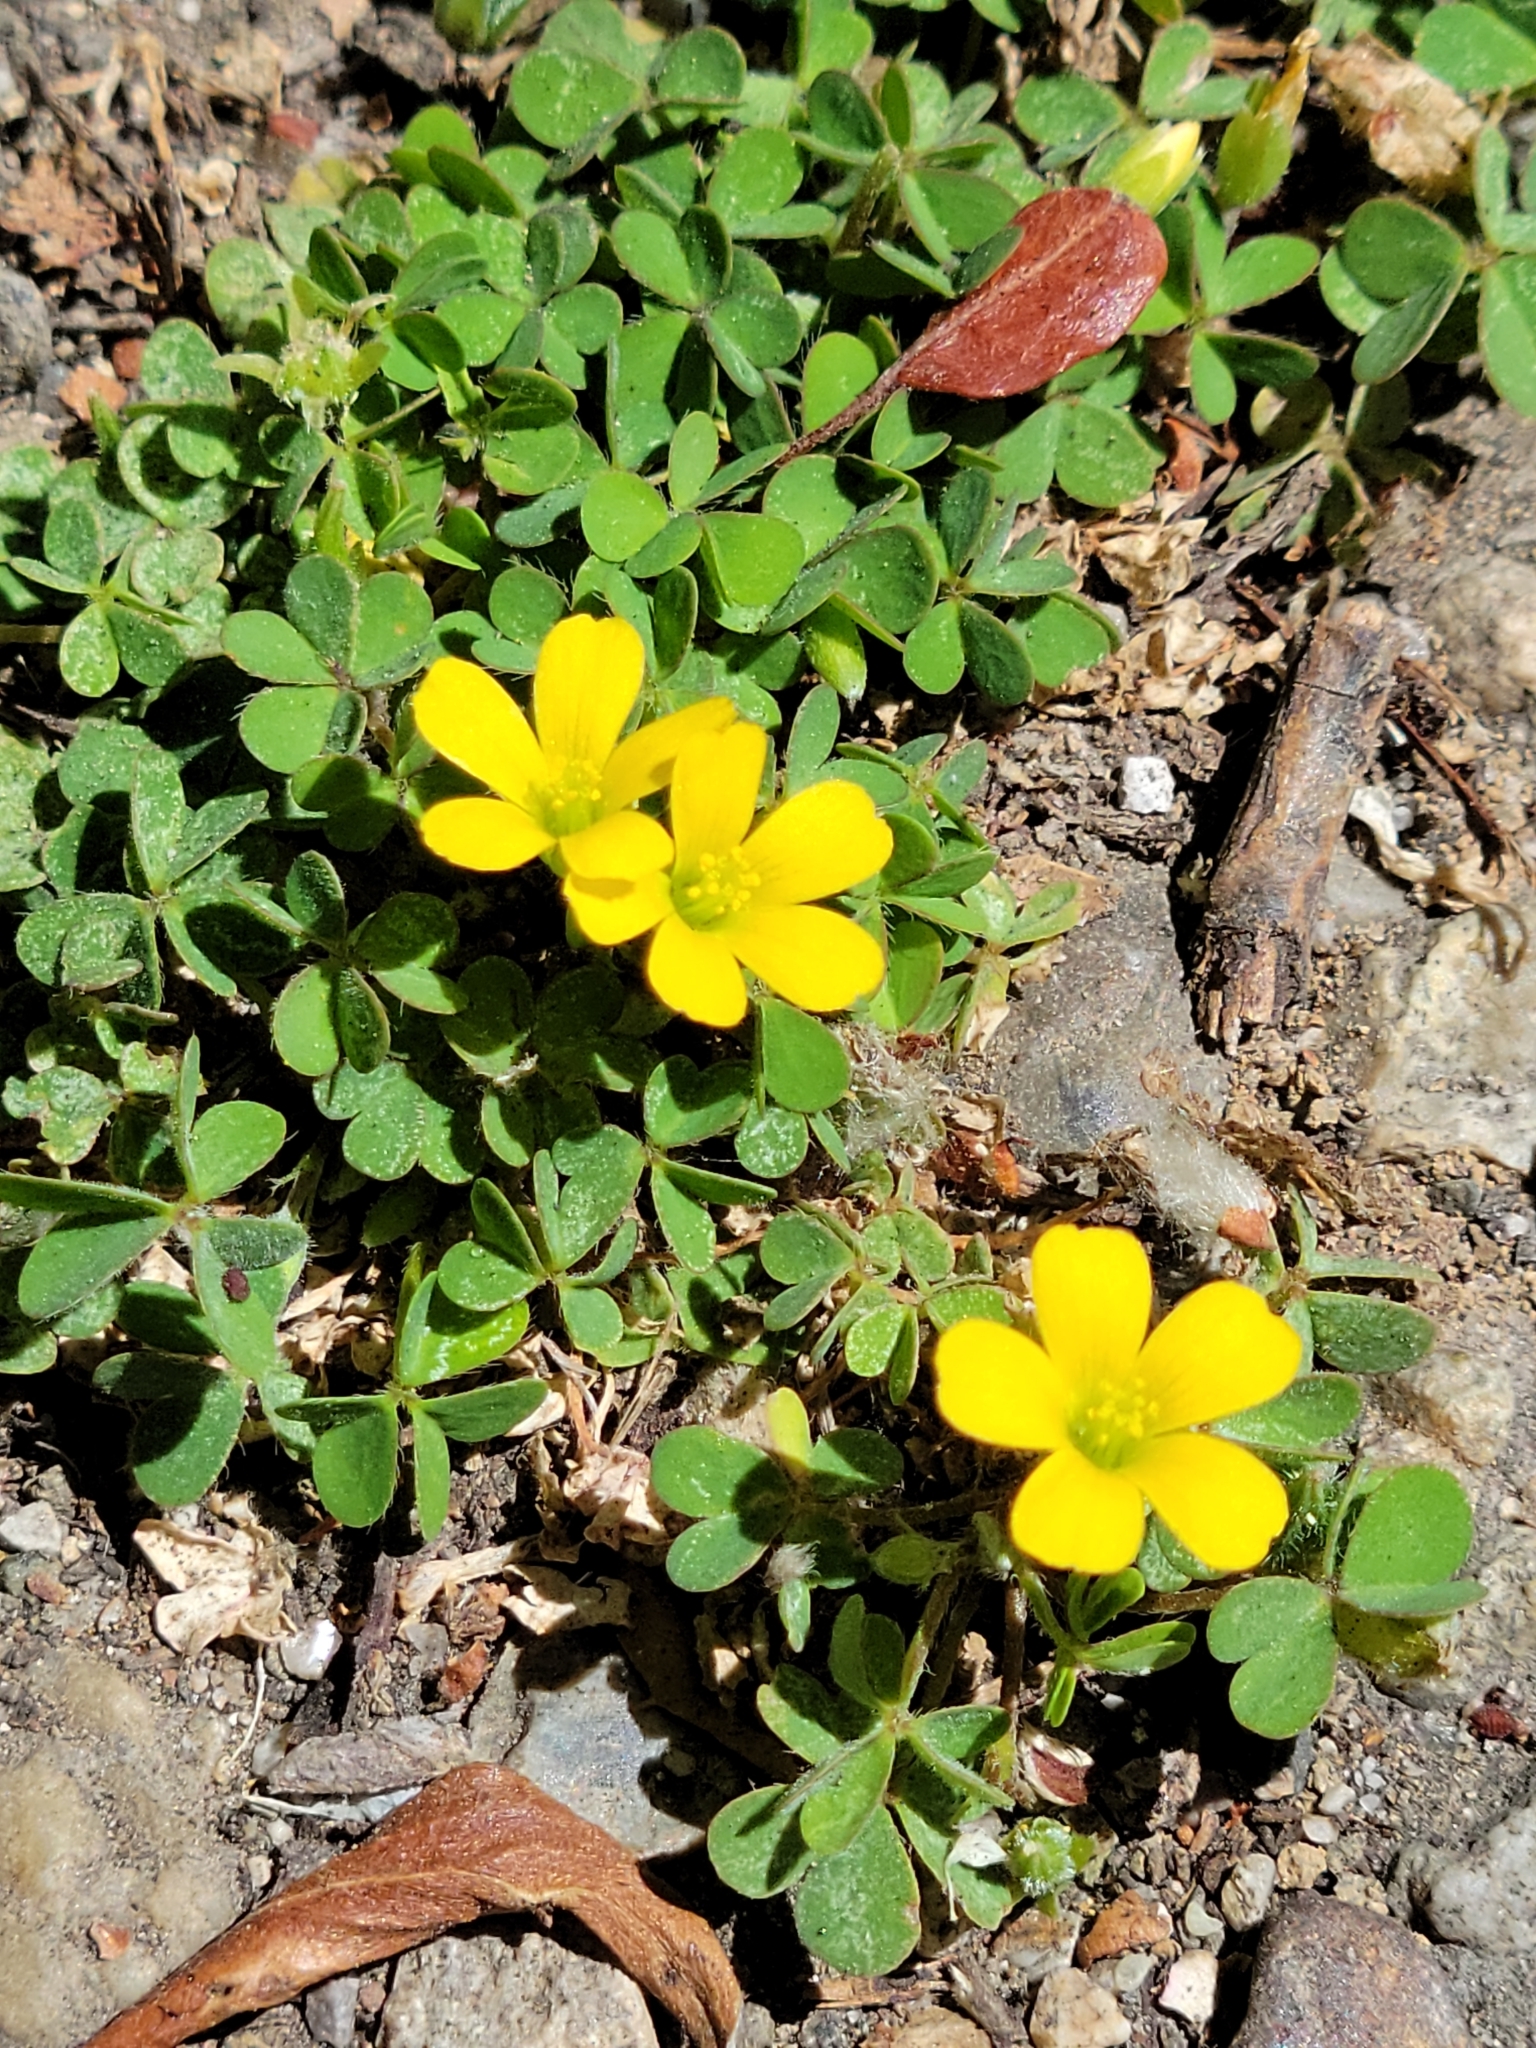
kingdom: Plantae
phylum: Tracheophyta
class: Magnoliopsida
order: Oxalidales
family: Oxalidaceae
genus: Oxalis
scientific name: Oxalis corniculata
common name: Procumbent yellow-sorrel
